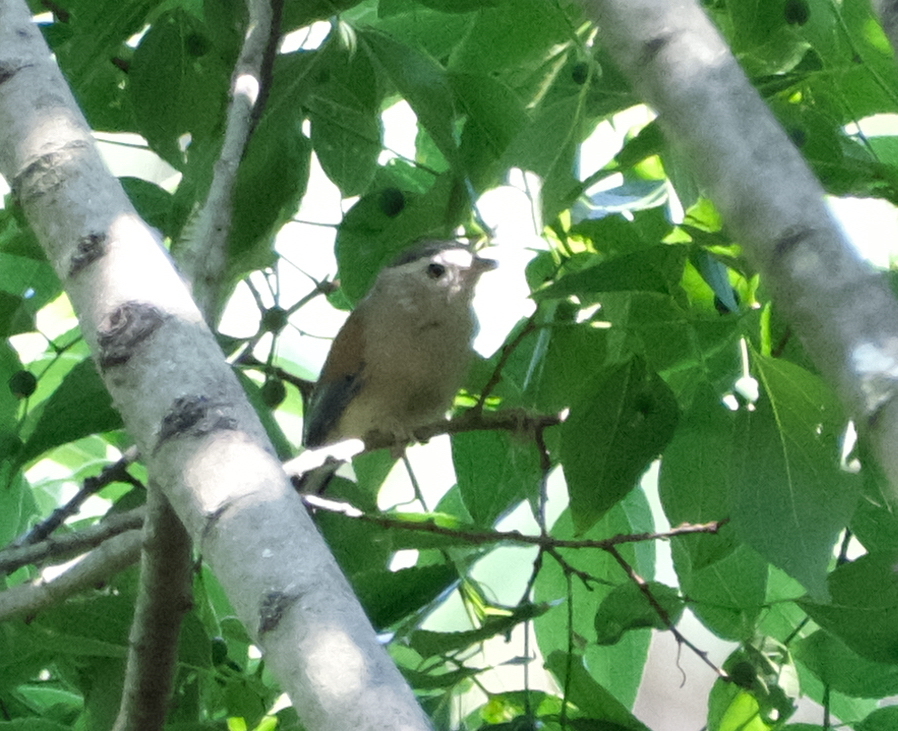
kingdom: Animalia
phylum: Chordata
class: Aves
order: Passeriformes
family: Leiothrichidae
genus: Minla
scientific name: Minla cyanouroptera
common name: Blue-winged minla
